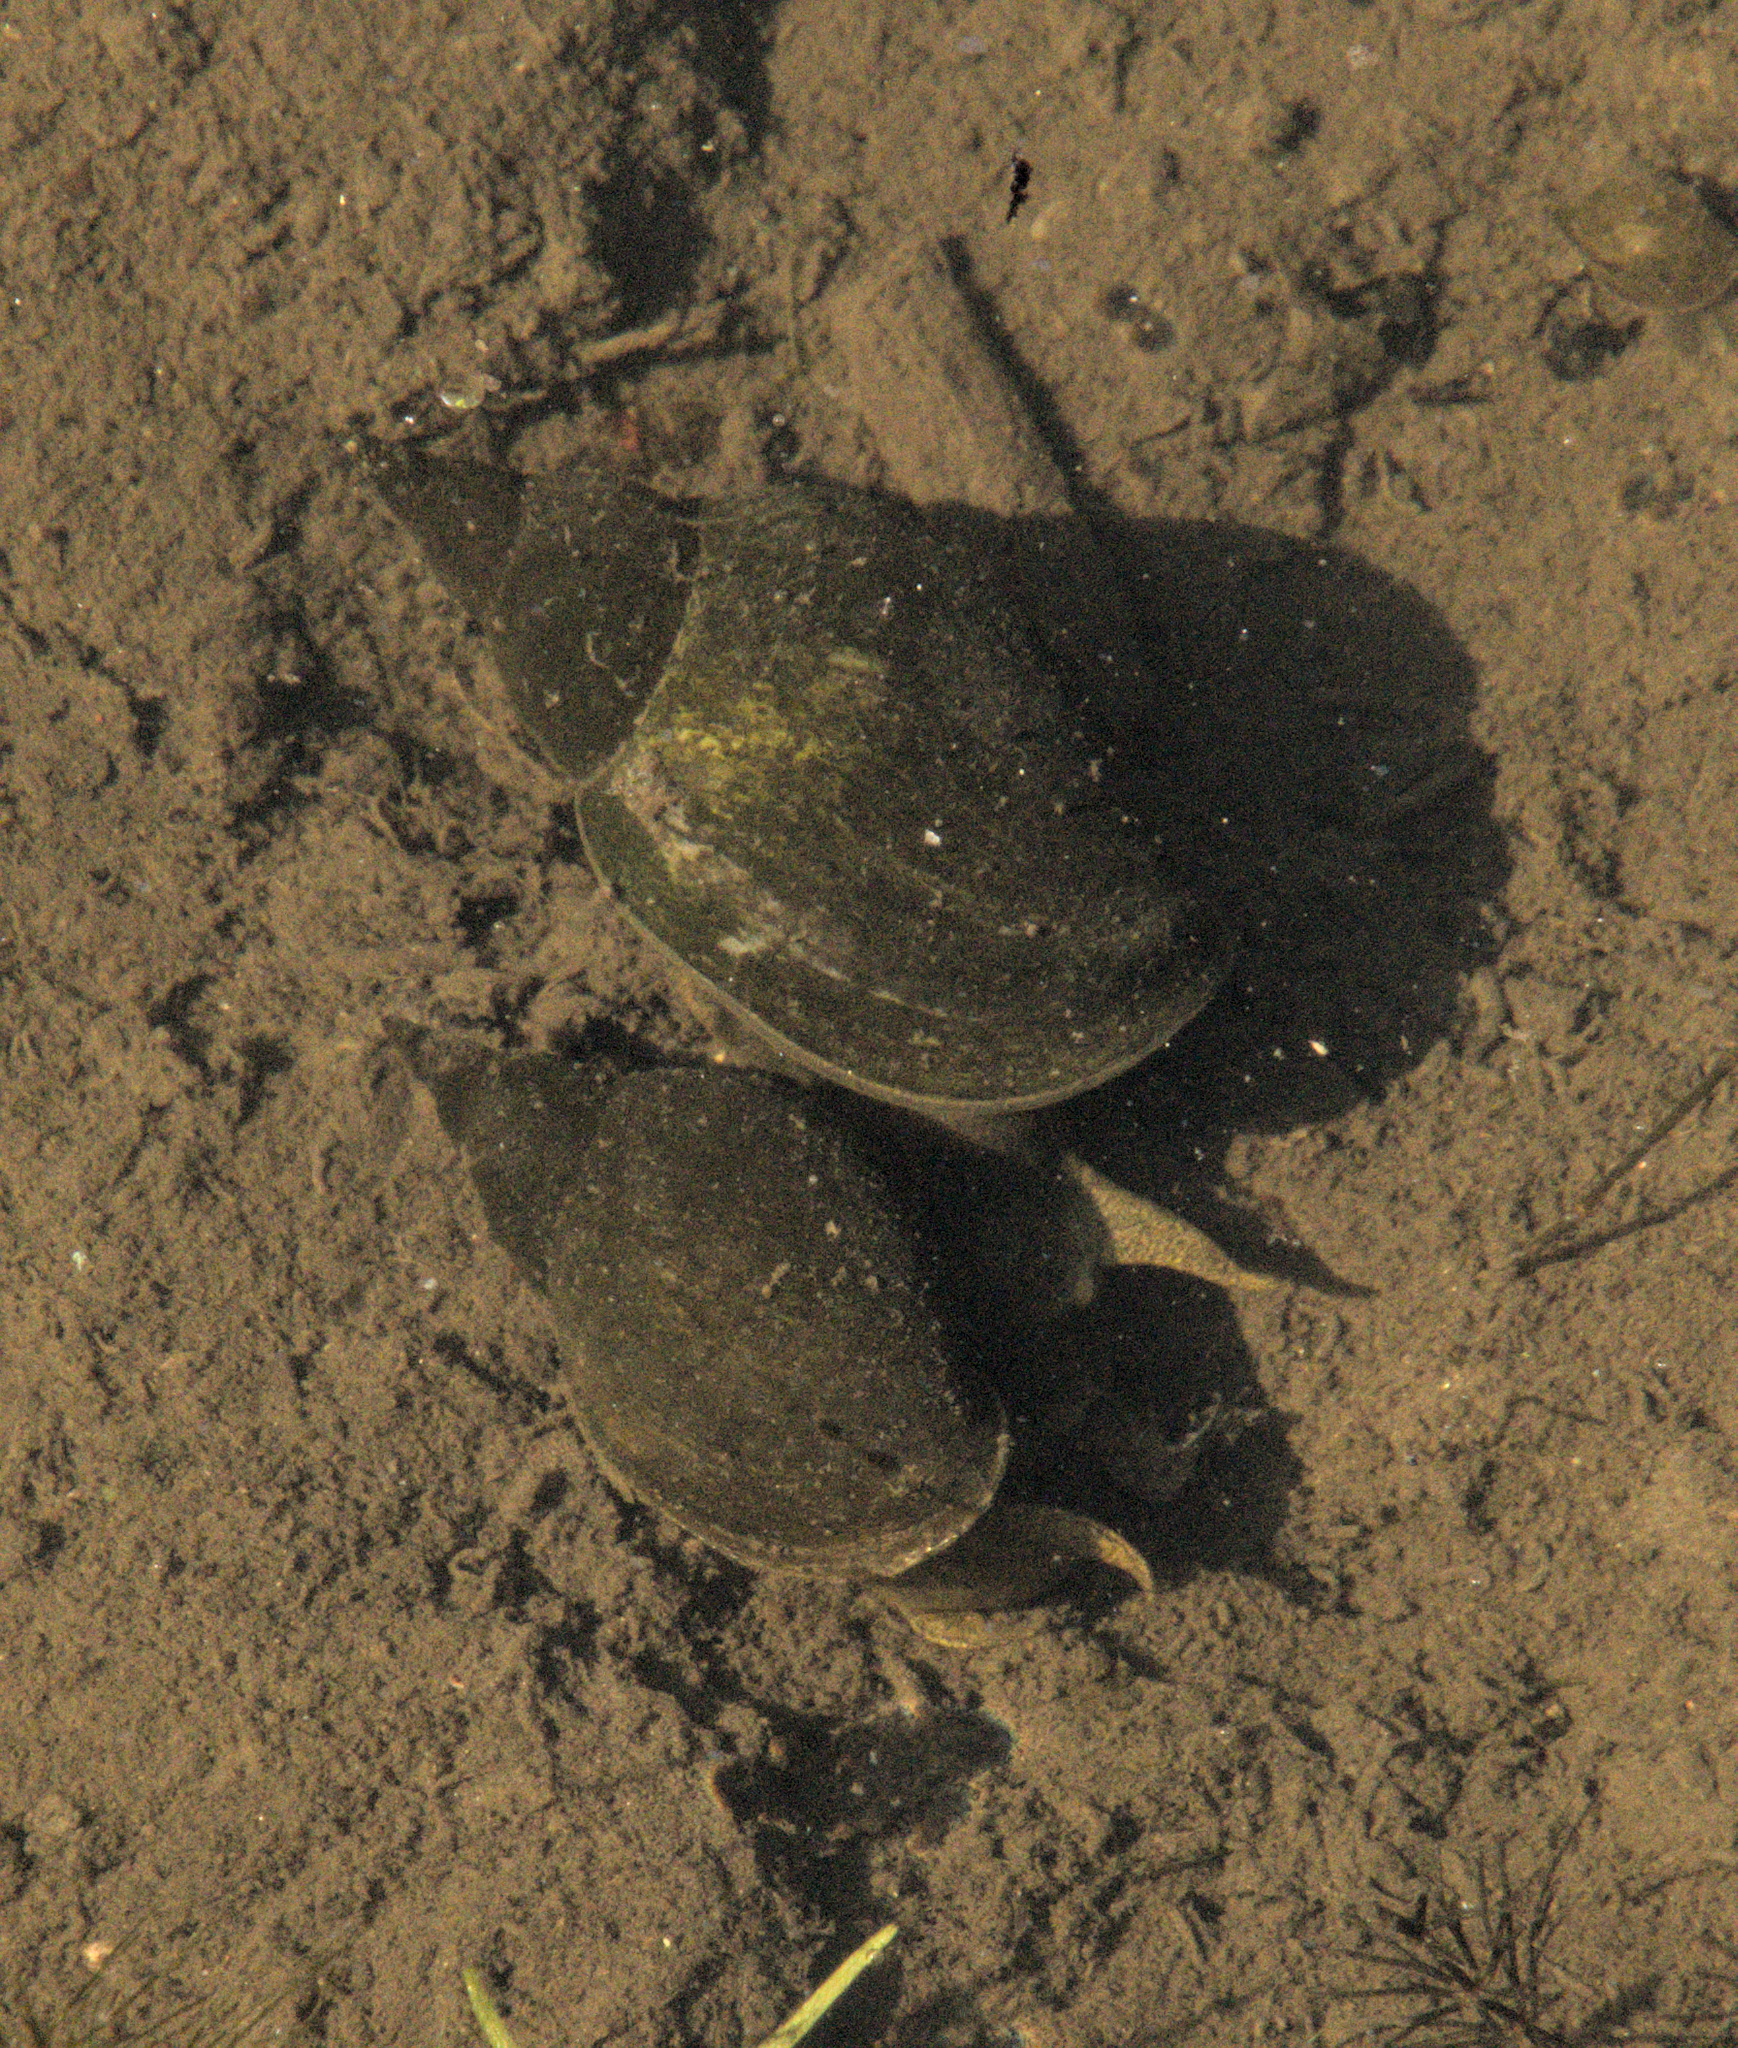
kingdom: Animalia
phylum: Mollusca
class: Gastropoda
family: Lymnaeidae
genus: Lymnaea
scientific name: Lymnaea stagnalis
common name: Great pond snail
